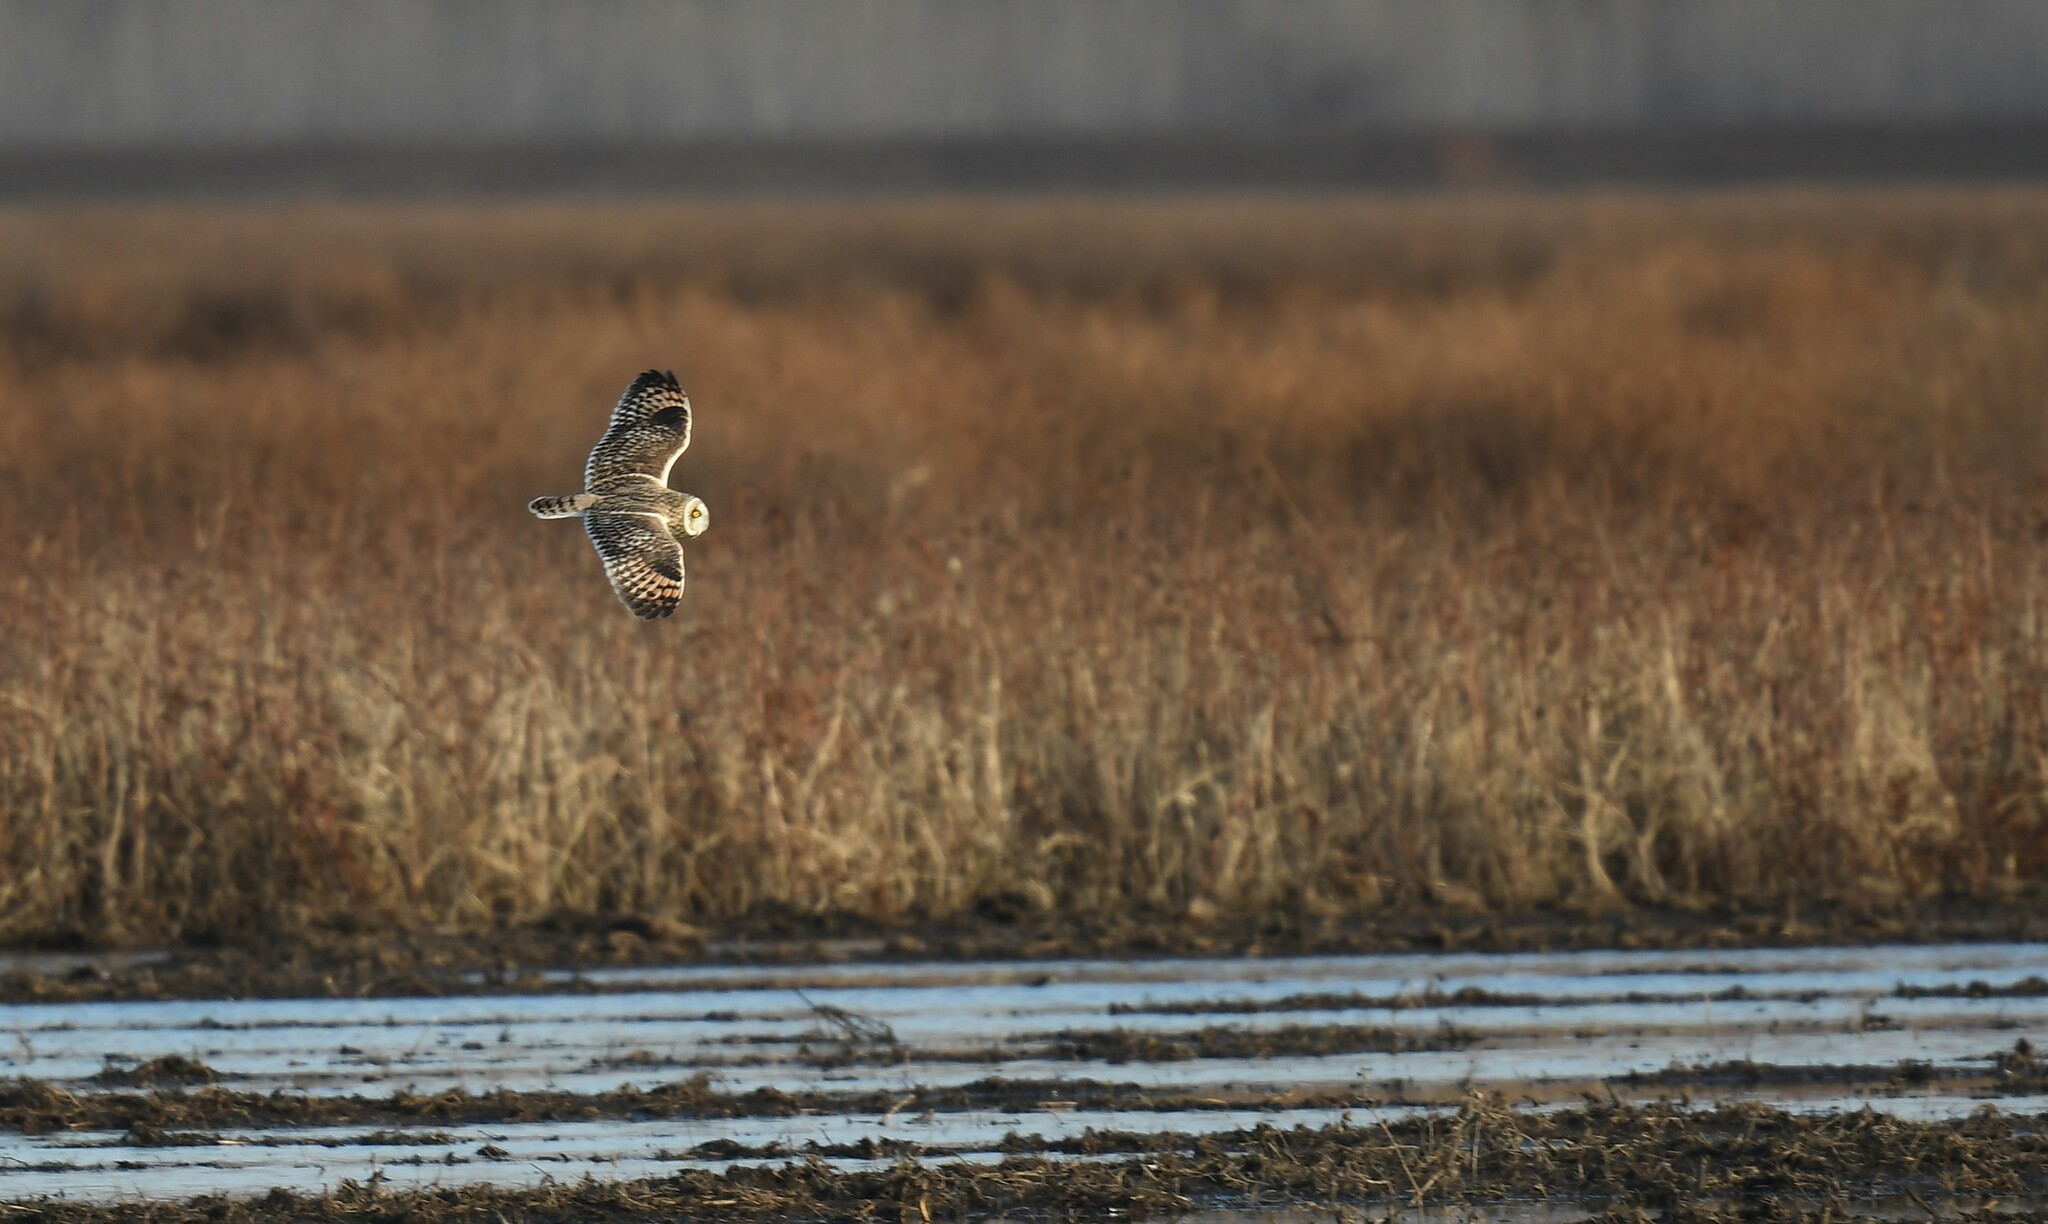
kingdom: Animalia
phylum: Chordata
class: Aves
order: Strigiformes
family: Strigidae
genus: Asio
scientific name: Asio flammeus
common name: Short-eared owl
